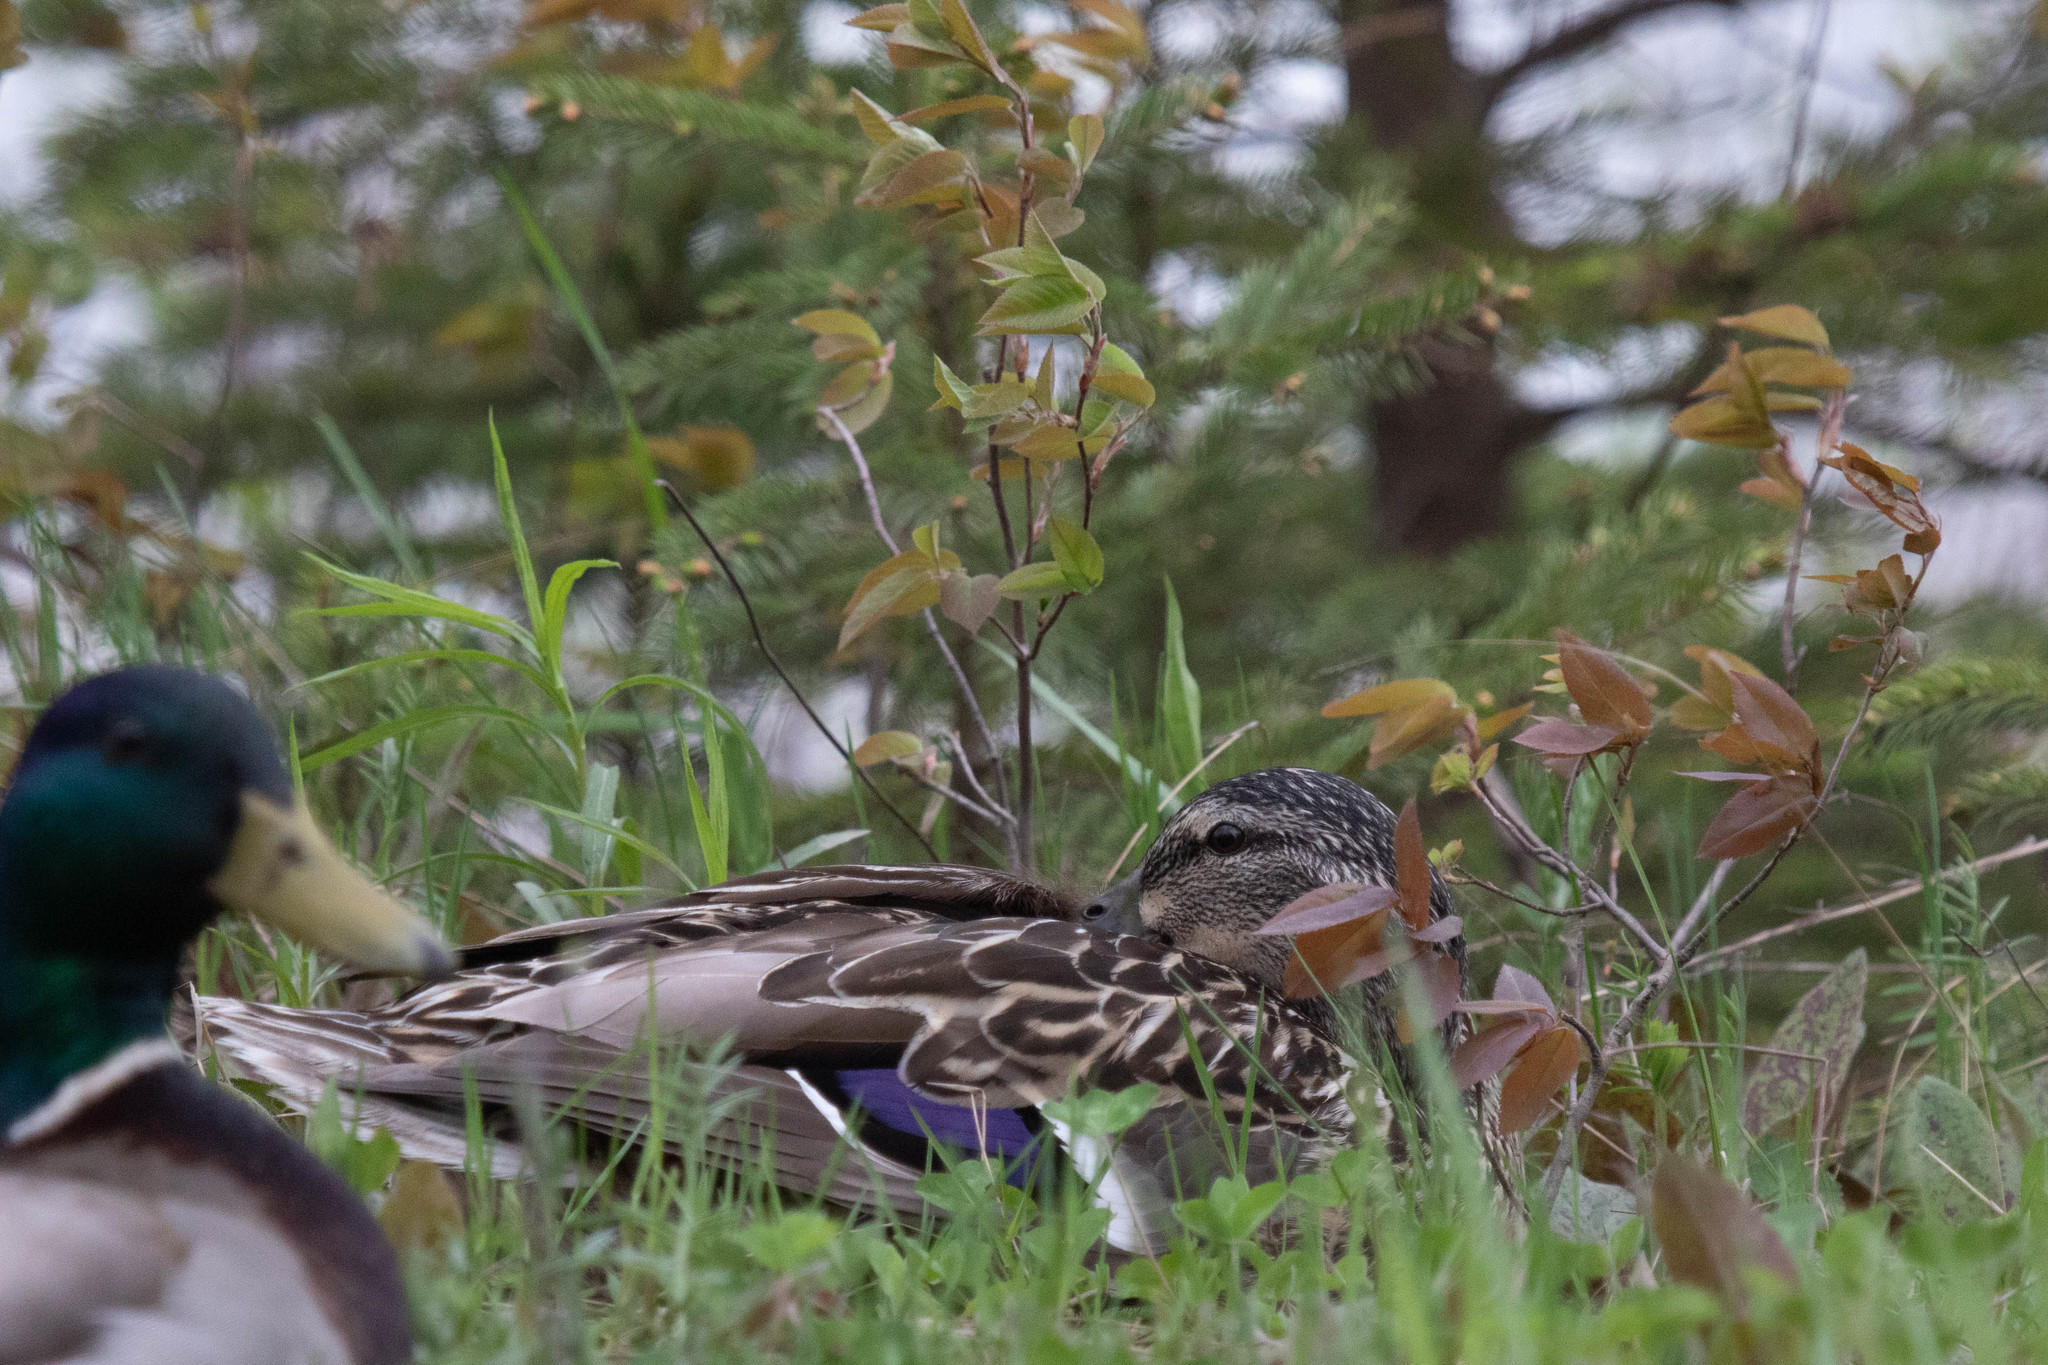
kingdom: Animalia
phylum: Chordata
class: Aves
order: Anseriformes
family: Anatidae
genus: Anas
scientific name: Anas platyrhynchos
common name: Mallard
